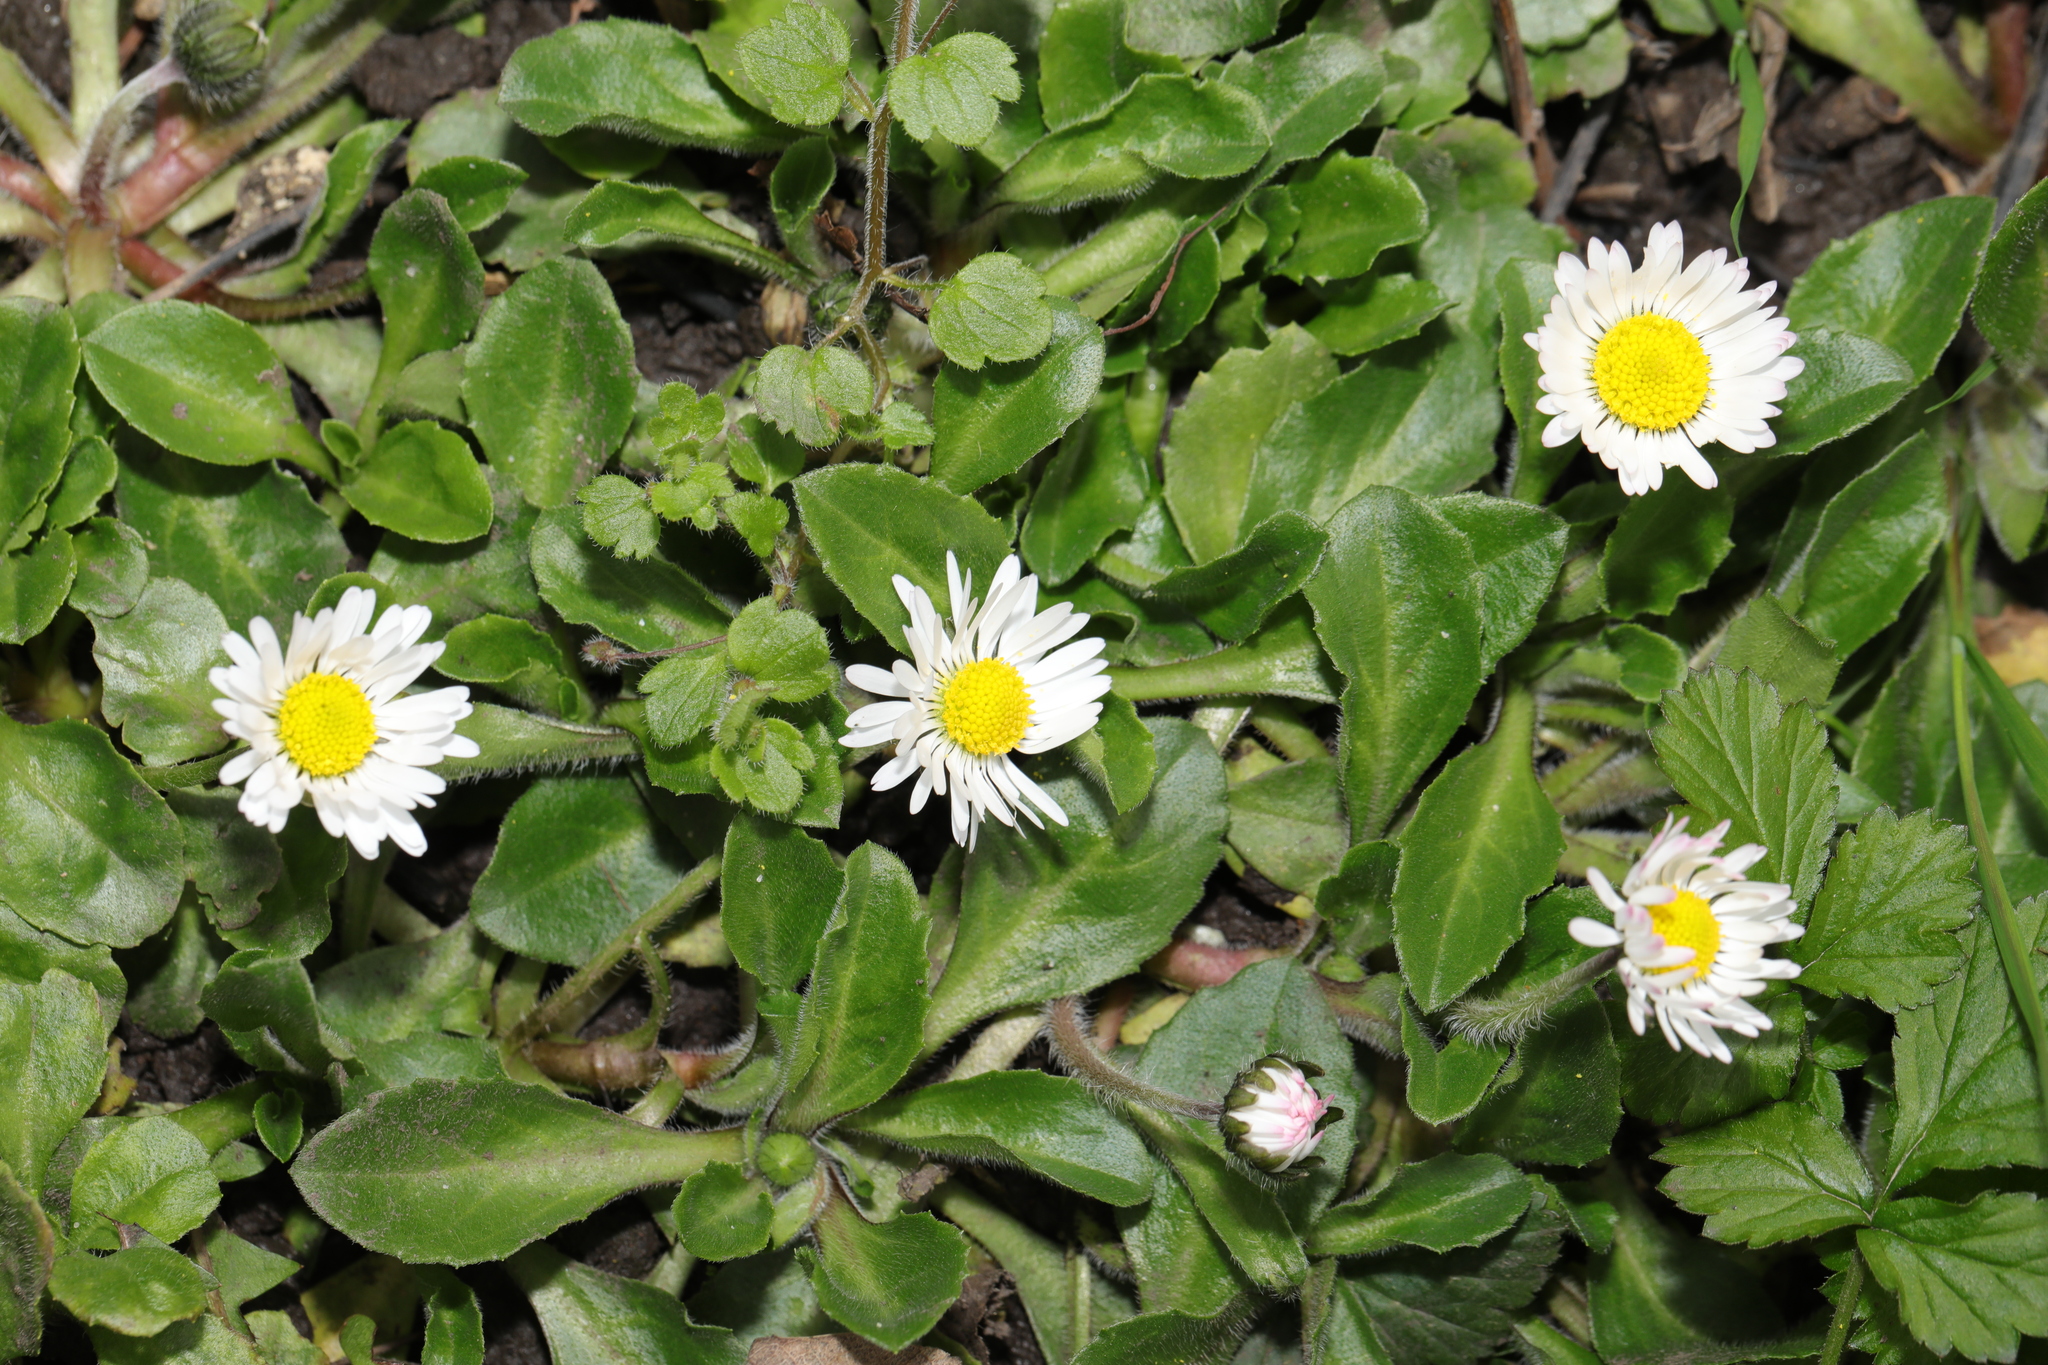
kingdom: Plantae
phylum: Tracheophyta
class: Magnoliopsida
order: Asterales
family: Asteraceae
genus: Bellis
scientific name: Bellis perennis
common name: Lawndaisy
